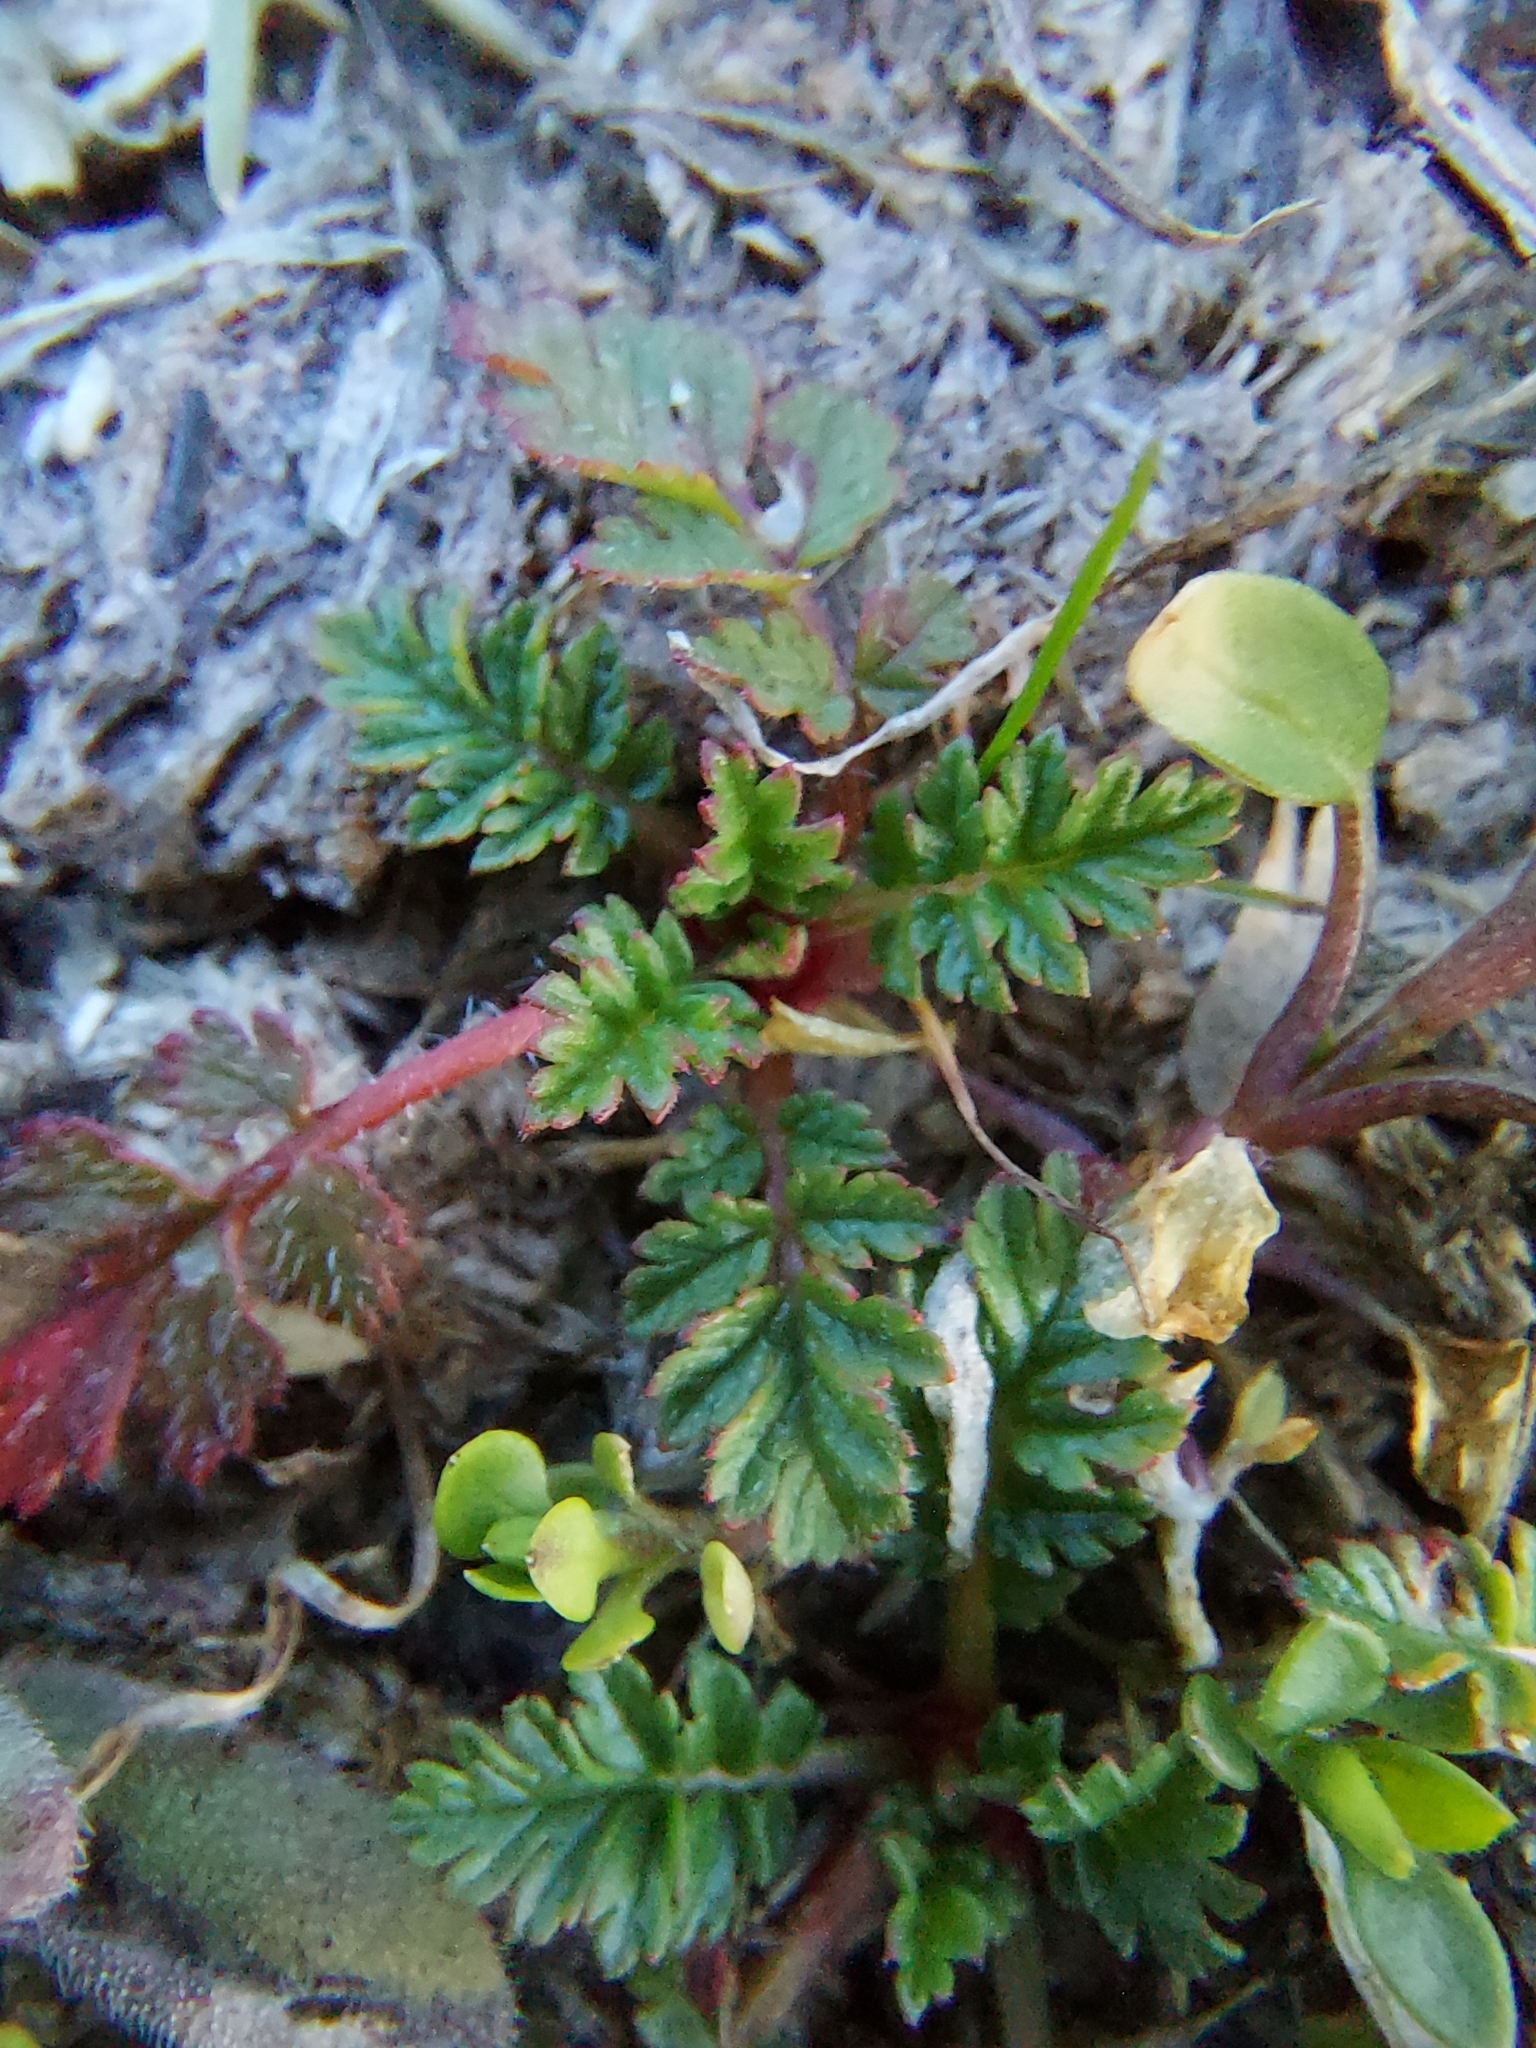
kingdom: Plantae
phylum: Tracheophyta
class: Magnoliopsida
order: Geraniales
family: Geraniaceae
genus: Erodium
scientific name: Erodium cicutarium
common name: Common stork's-bill
